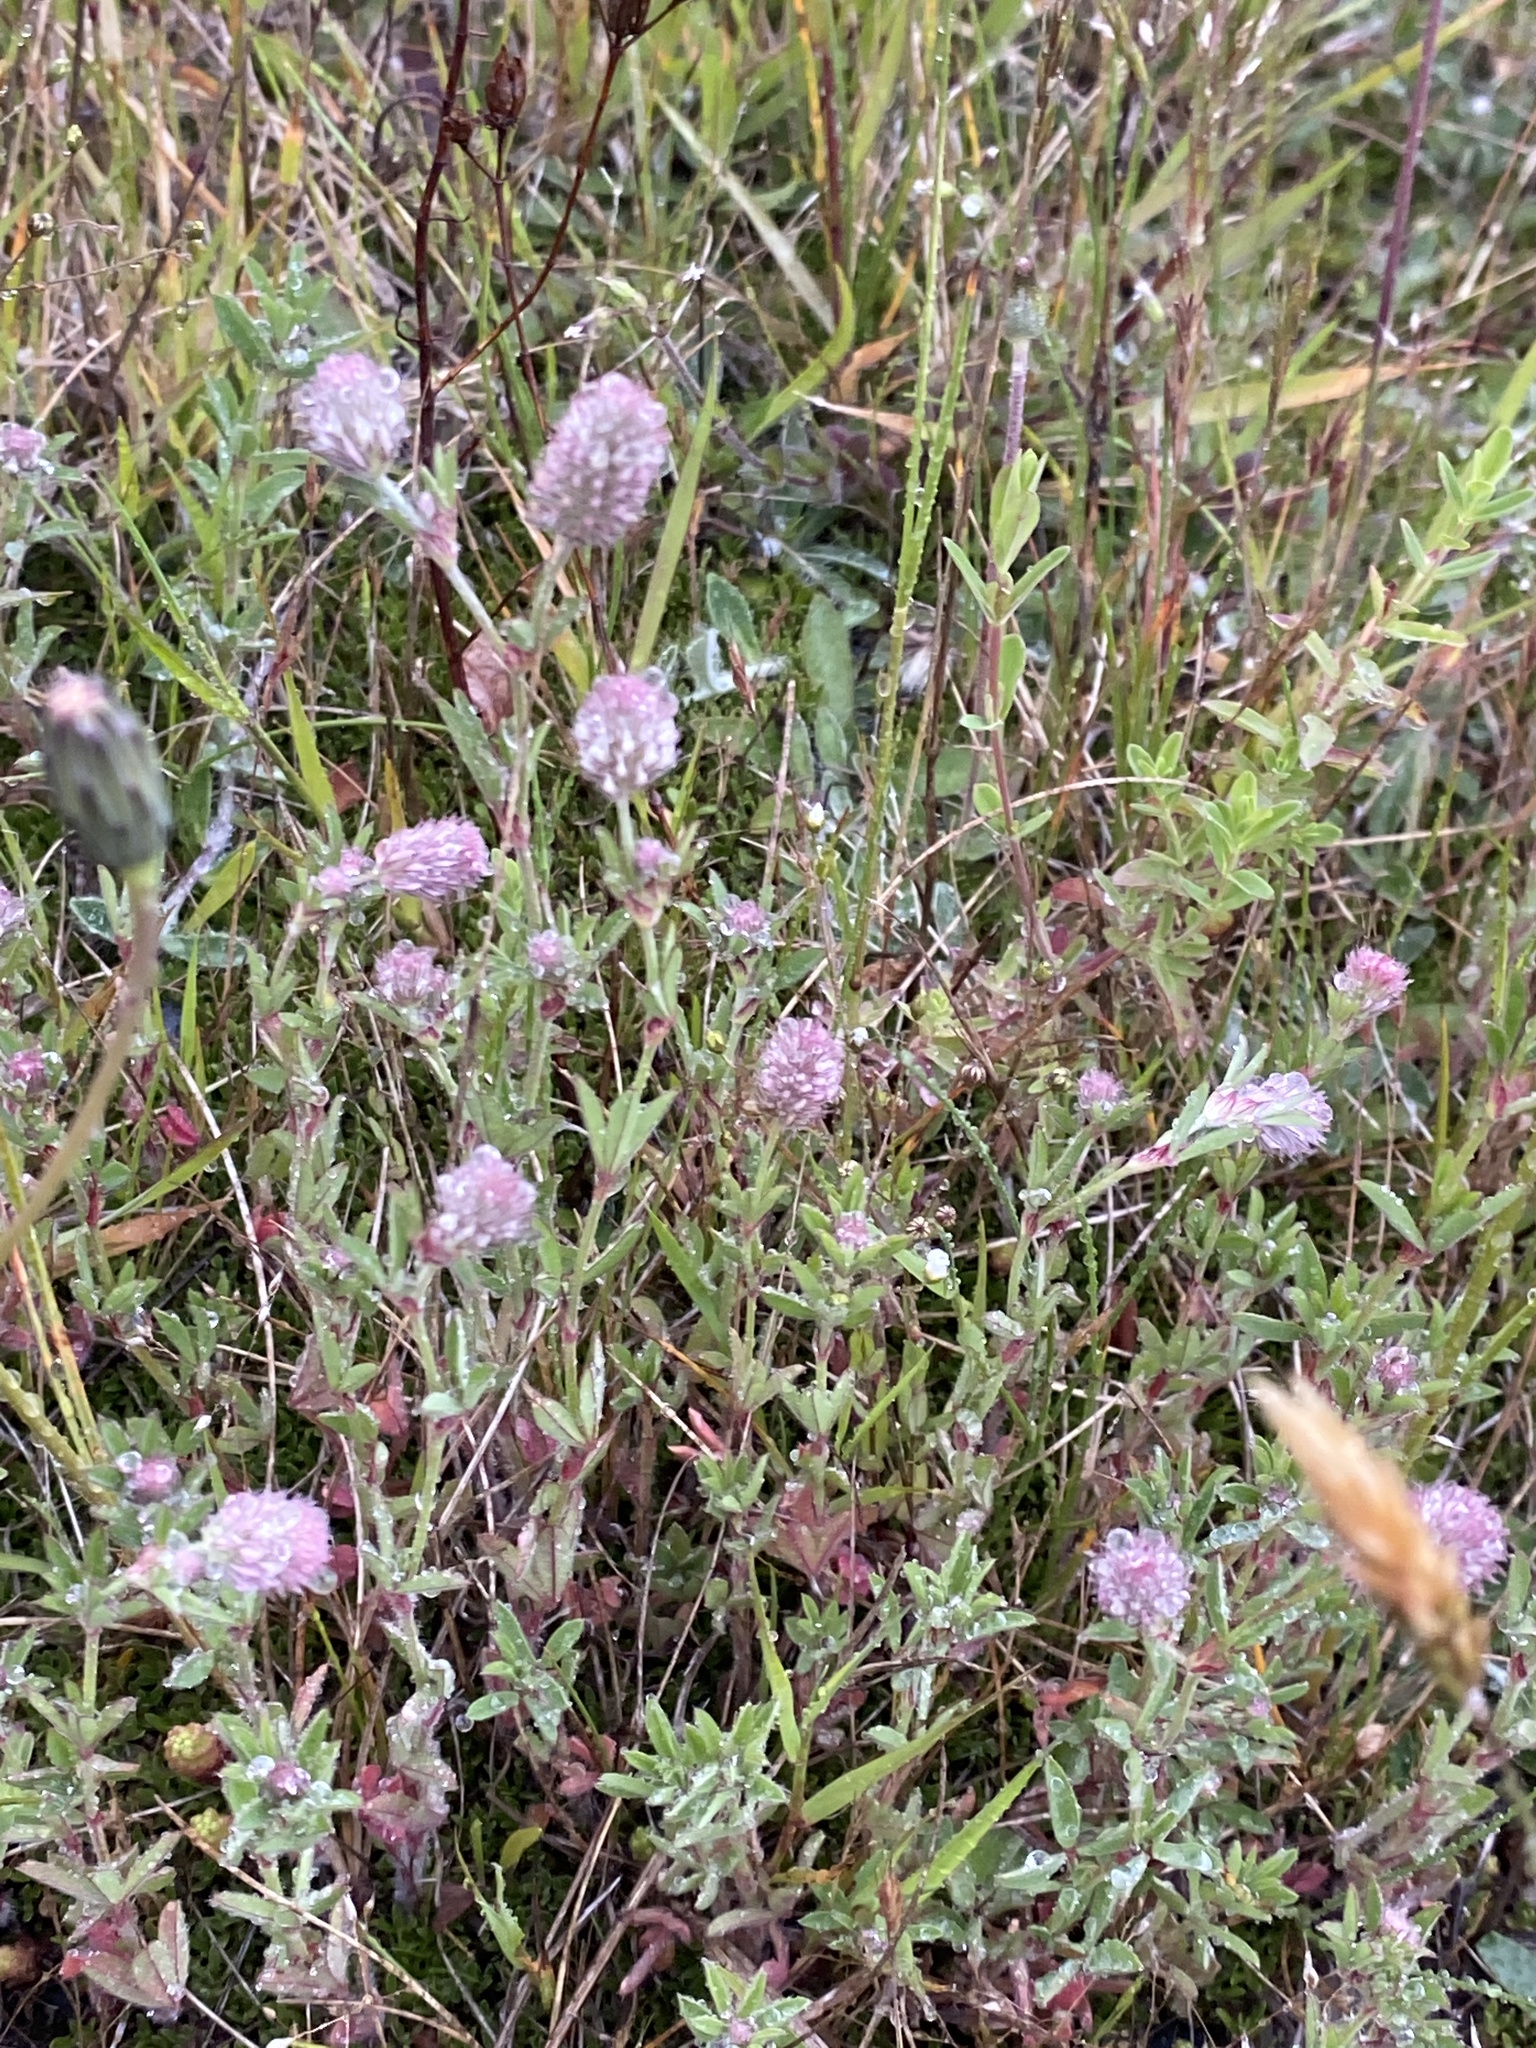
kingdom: Plantae
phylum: Tracheophyta
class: Magnoliopsida
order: Fabales
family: Fabaceae
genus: Trifolium
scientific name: Trifolium arvense
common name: Hare's-foot clover
